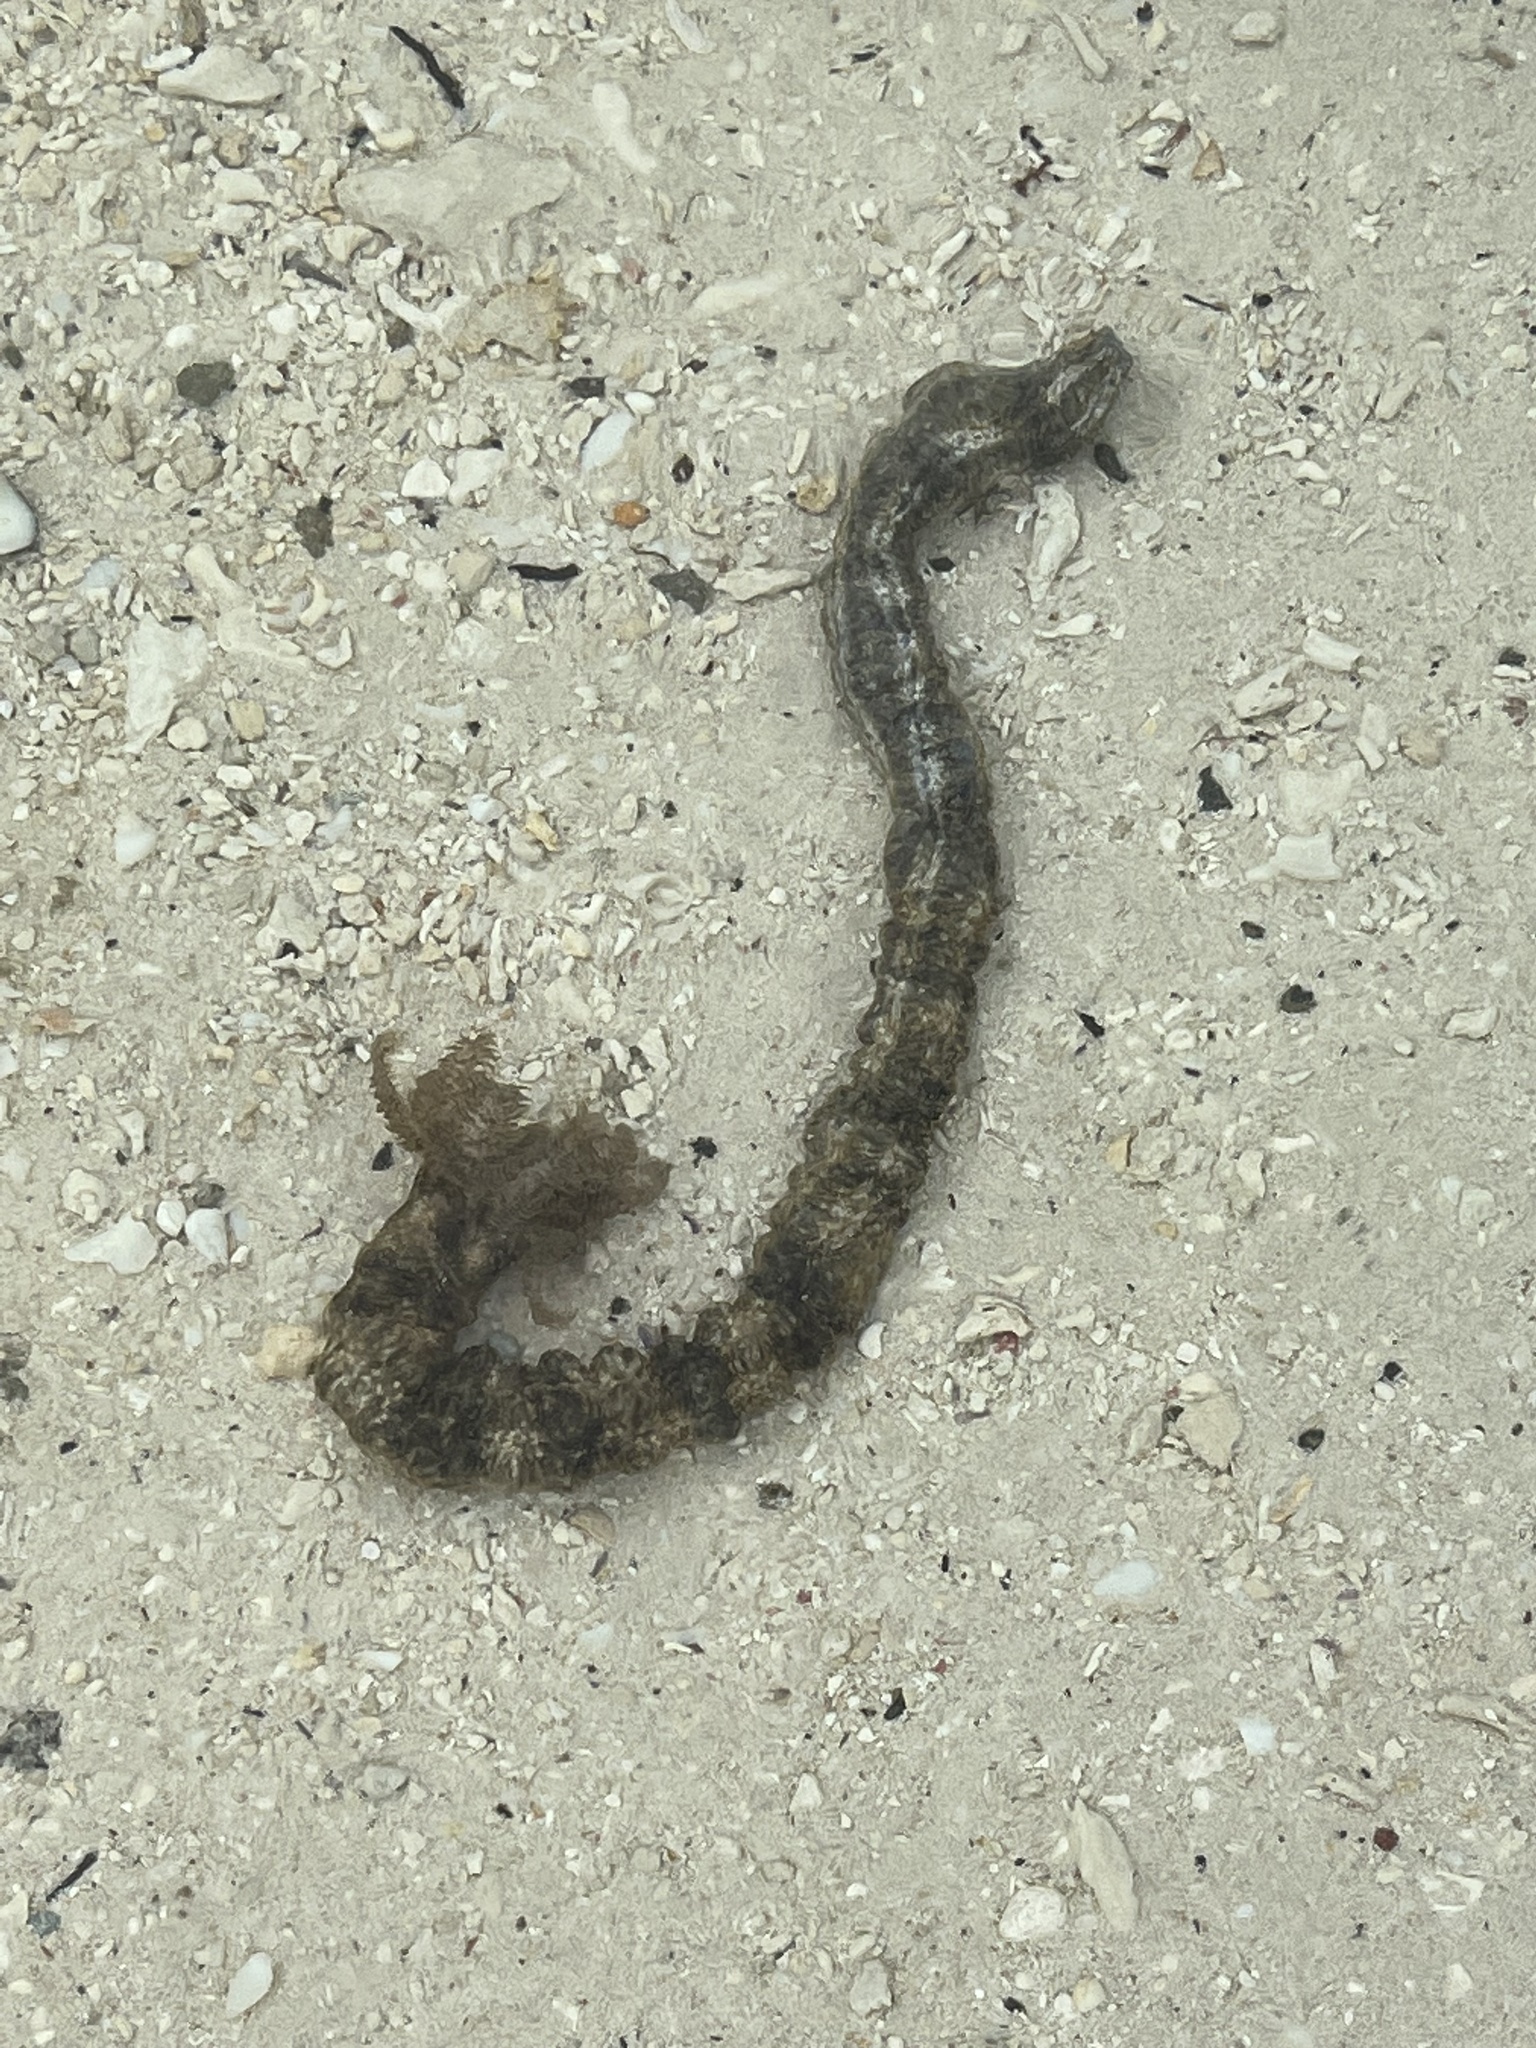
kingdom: Animalia
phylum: Echinodermata
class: Holothuroidea
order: Apodida
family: Synaptidae
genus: Synapta
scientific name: Synapta maculata
